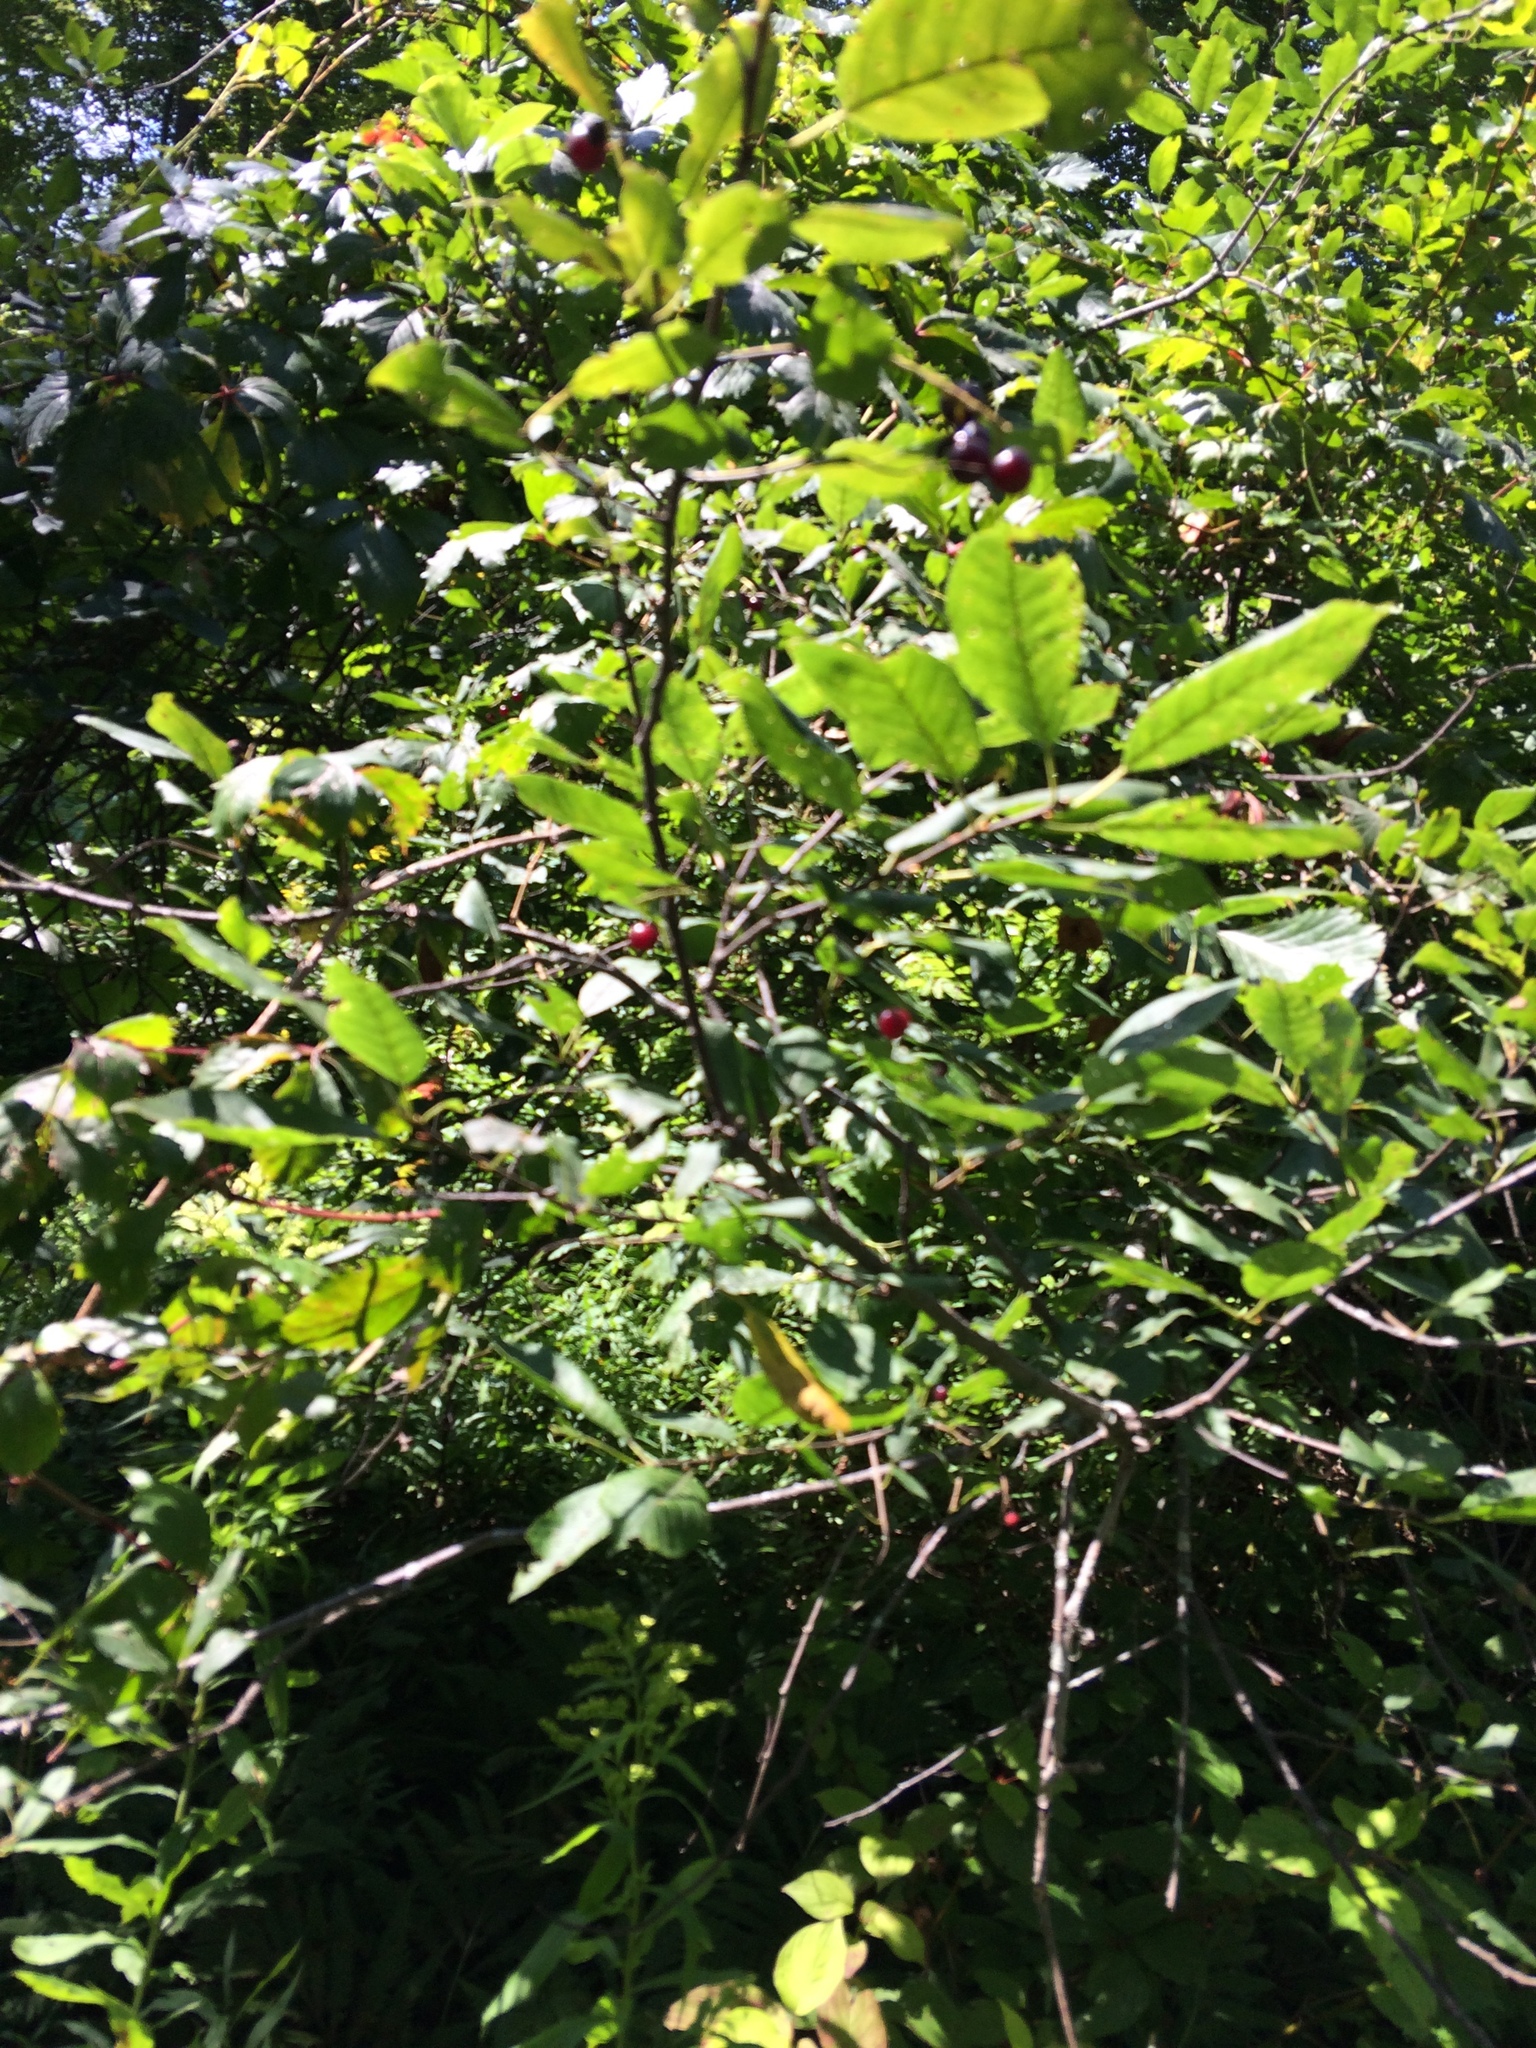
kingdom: Plantae
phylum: Tracheophyta
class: Magnoliopsida
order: Rosales
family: Rosaceae
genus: Prunus
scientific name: Prunus virginiana
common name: Chokecherry
